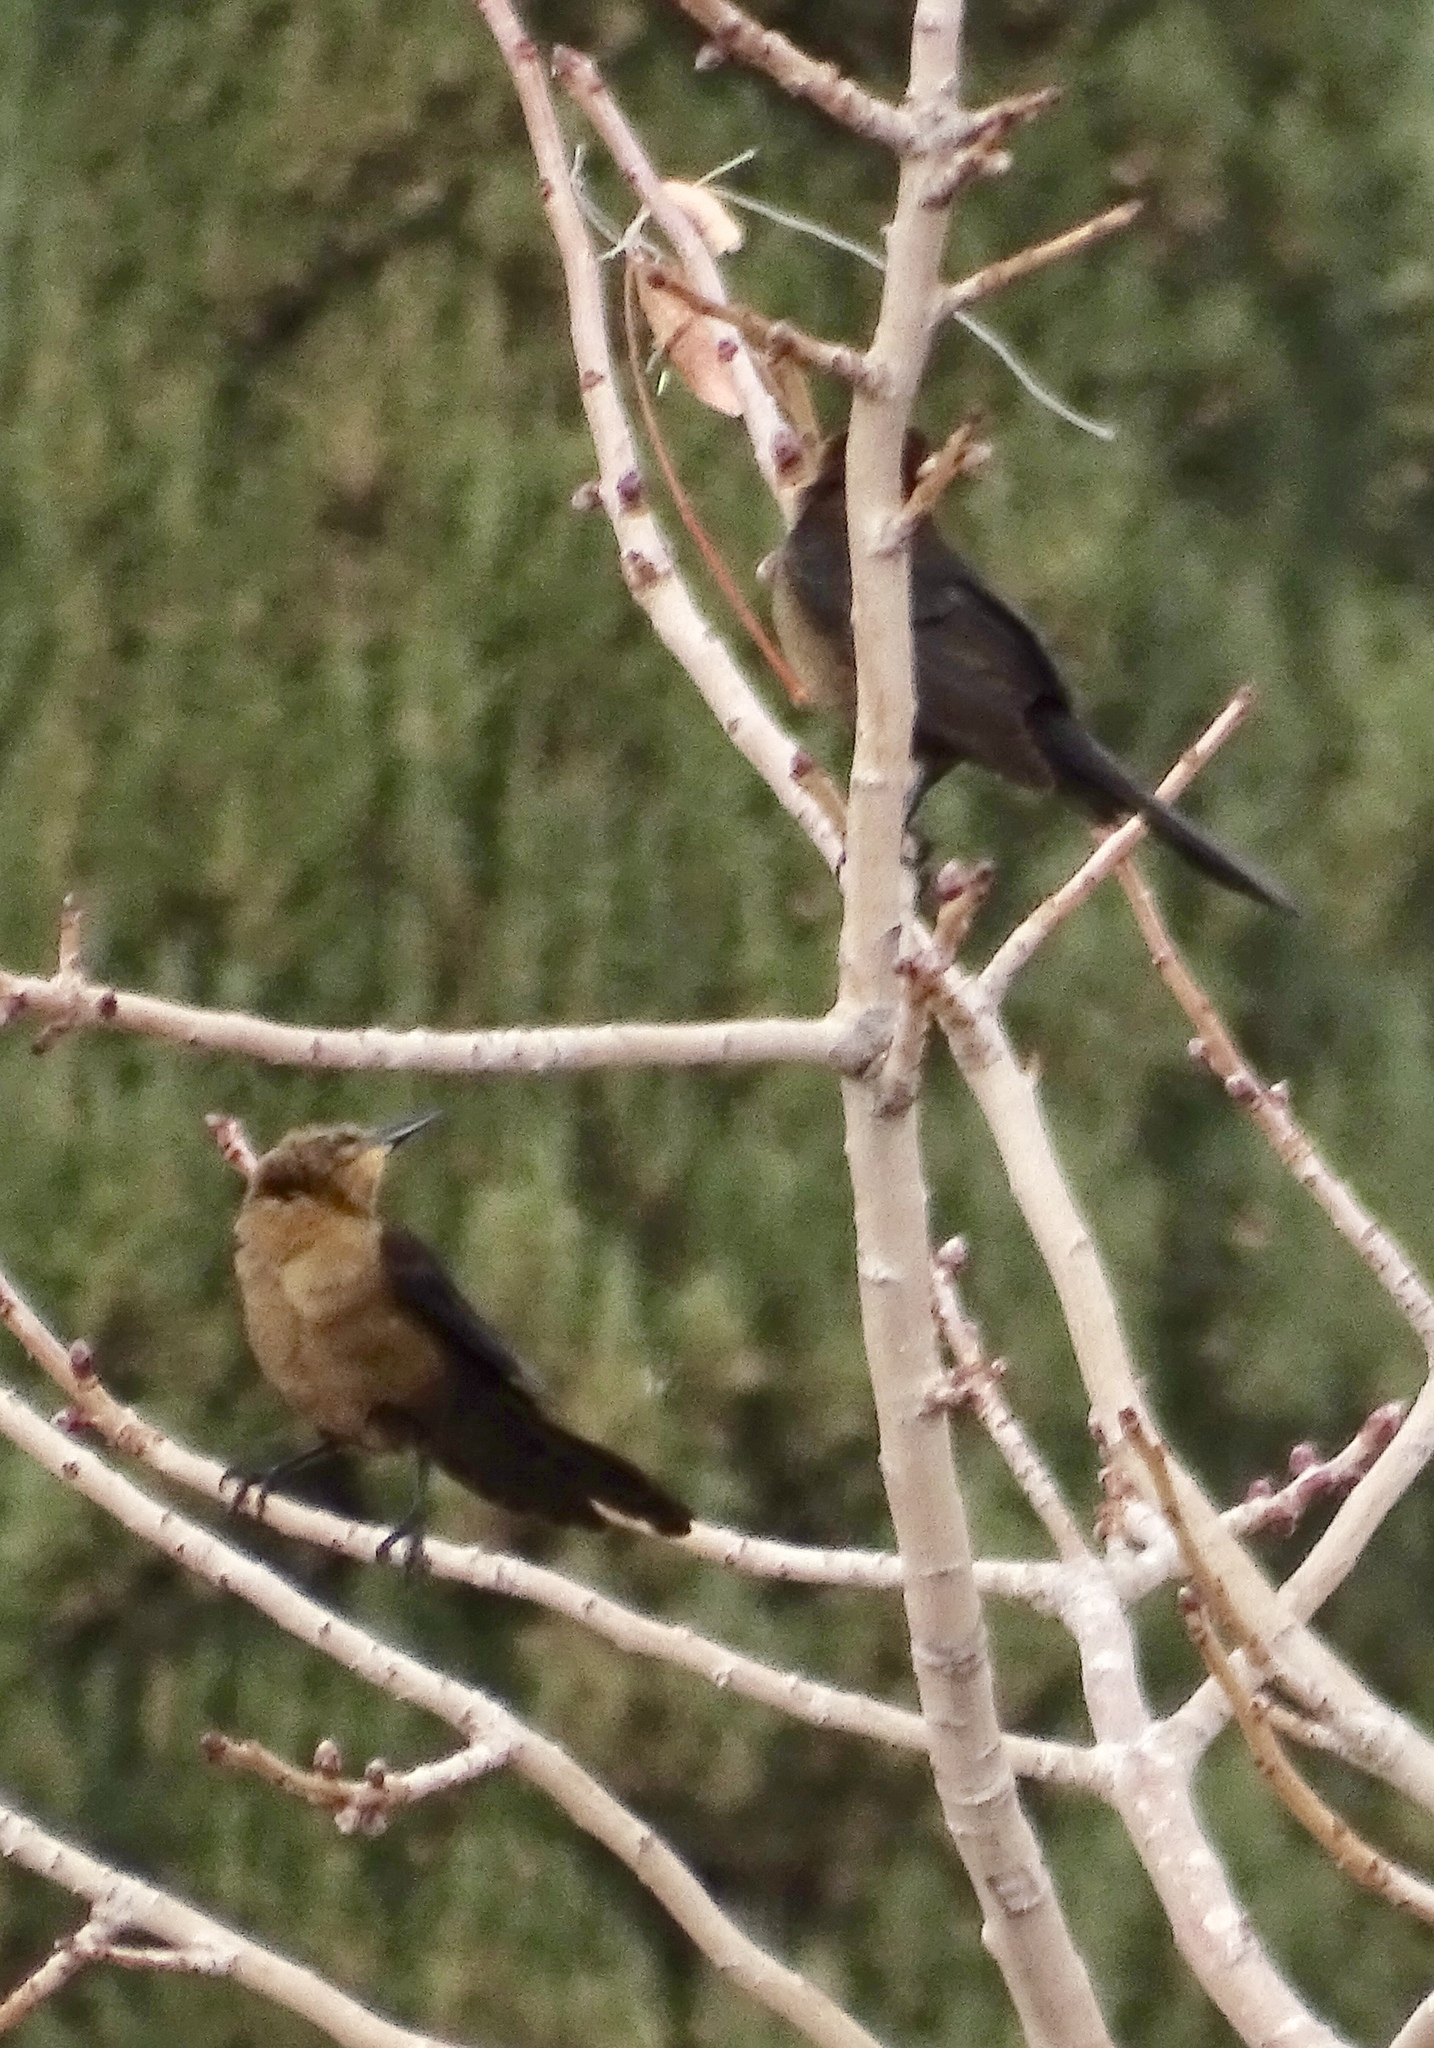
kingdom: Animalia
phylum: Chordata
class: Aves
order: Passeriformes
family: Icteridae
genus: Quiscalus
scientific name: Quiscalus mexicanus
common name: Great-tailed grackle
